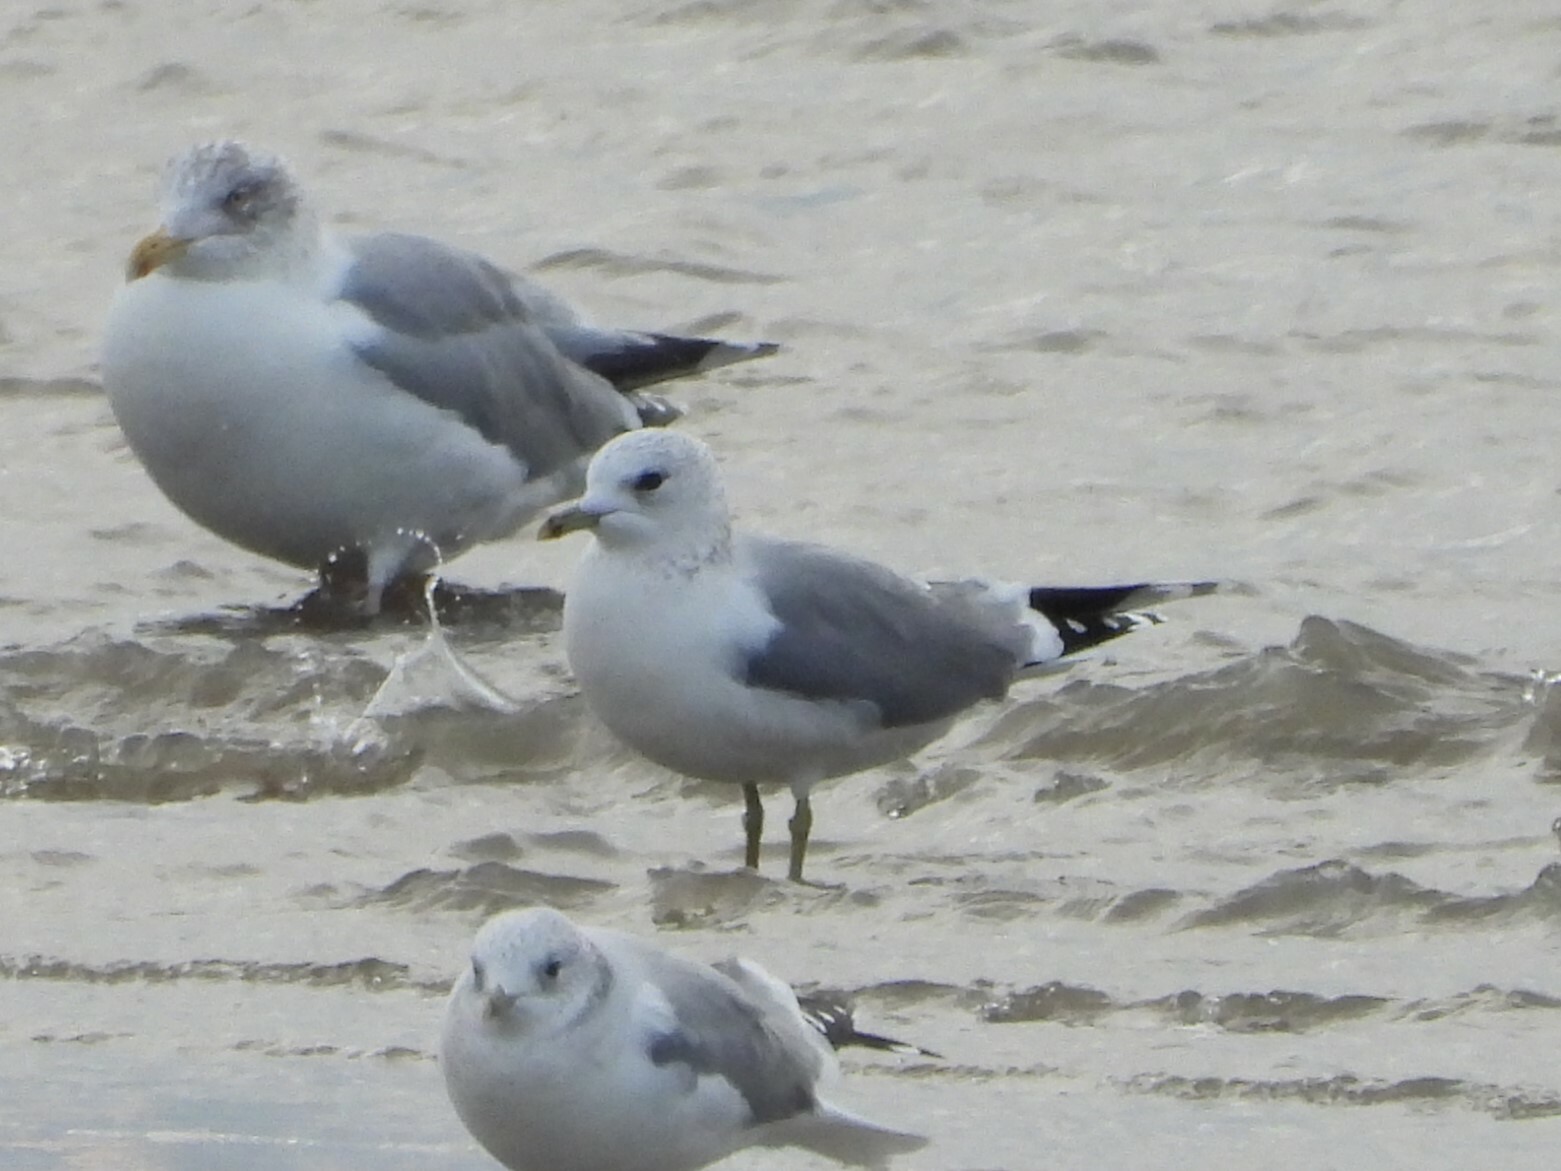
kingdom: Animalia
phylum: Chordata
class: Aves
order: Charadriiformes
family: Laridae
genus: Larus
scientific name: Larus canus
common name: Mew gull
